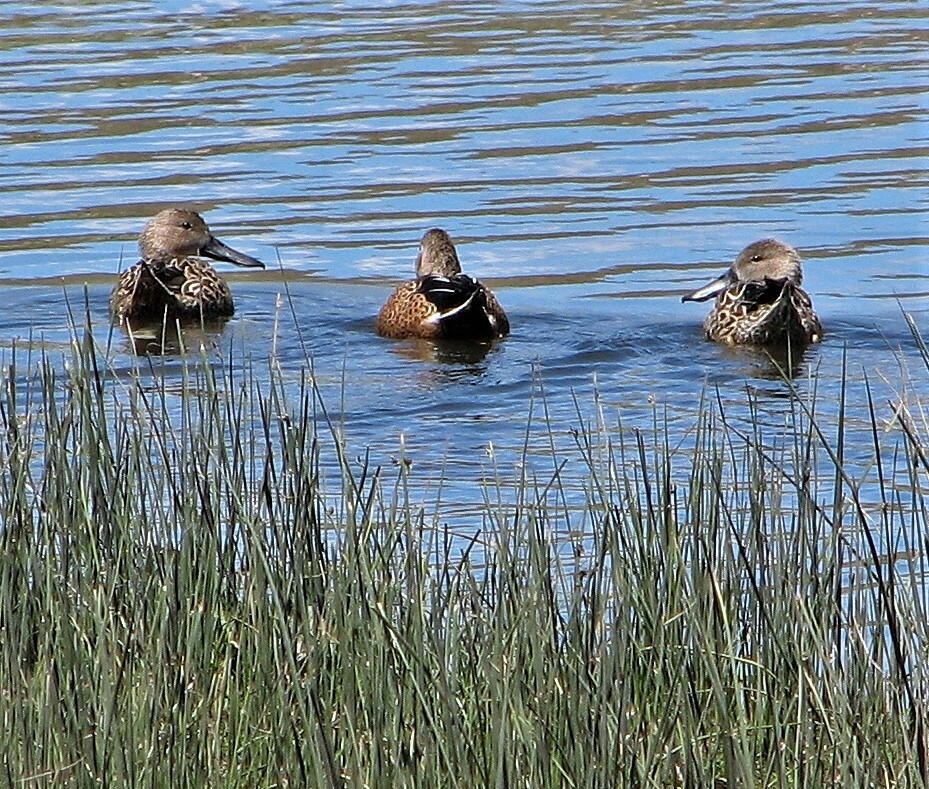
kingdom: Animalia
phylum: Chordata
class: Aves
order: Anseriformes
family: Anatidae
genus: Spatula
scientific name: Spatula platalea
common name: Red shoveler
